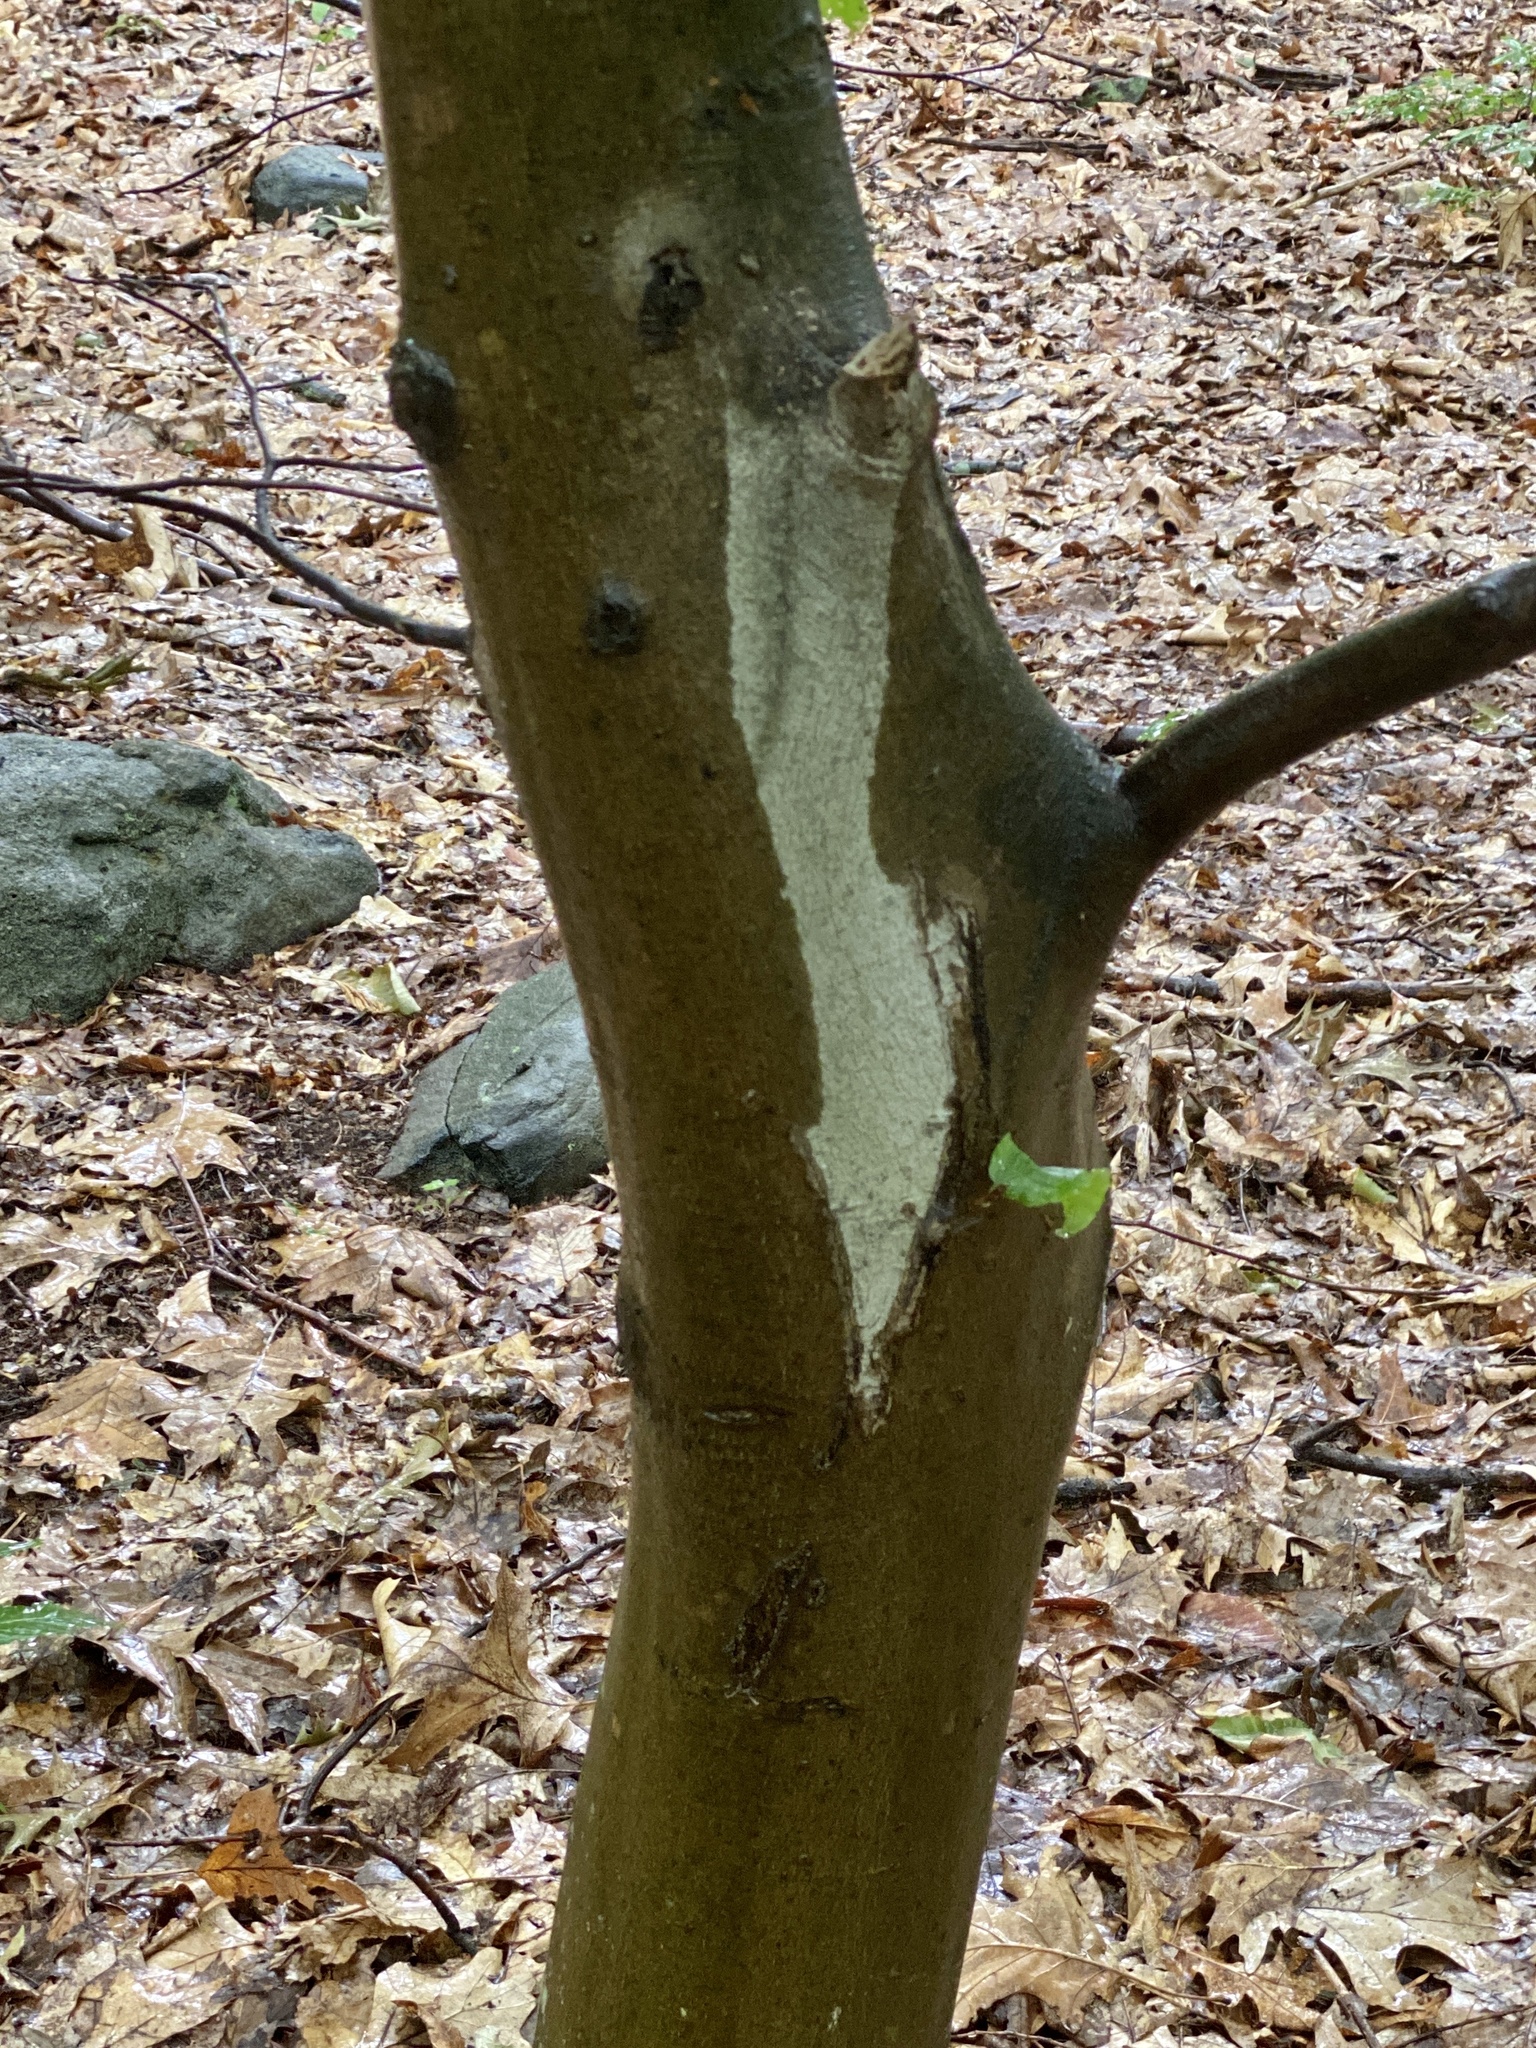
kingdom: Plantae
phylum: Tracheophyta
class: Magnoliopsida
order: Fagales
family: Fagaceae
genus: Fagus
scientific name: Fagus grandifolia
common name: American beech
